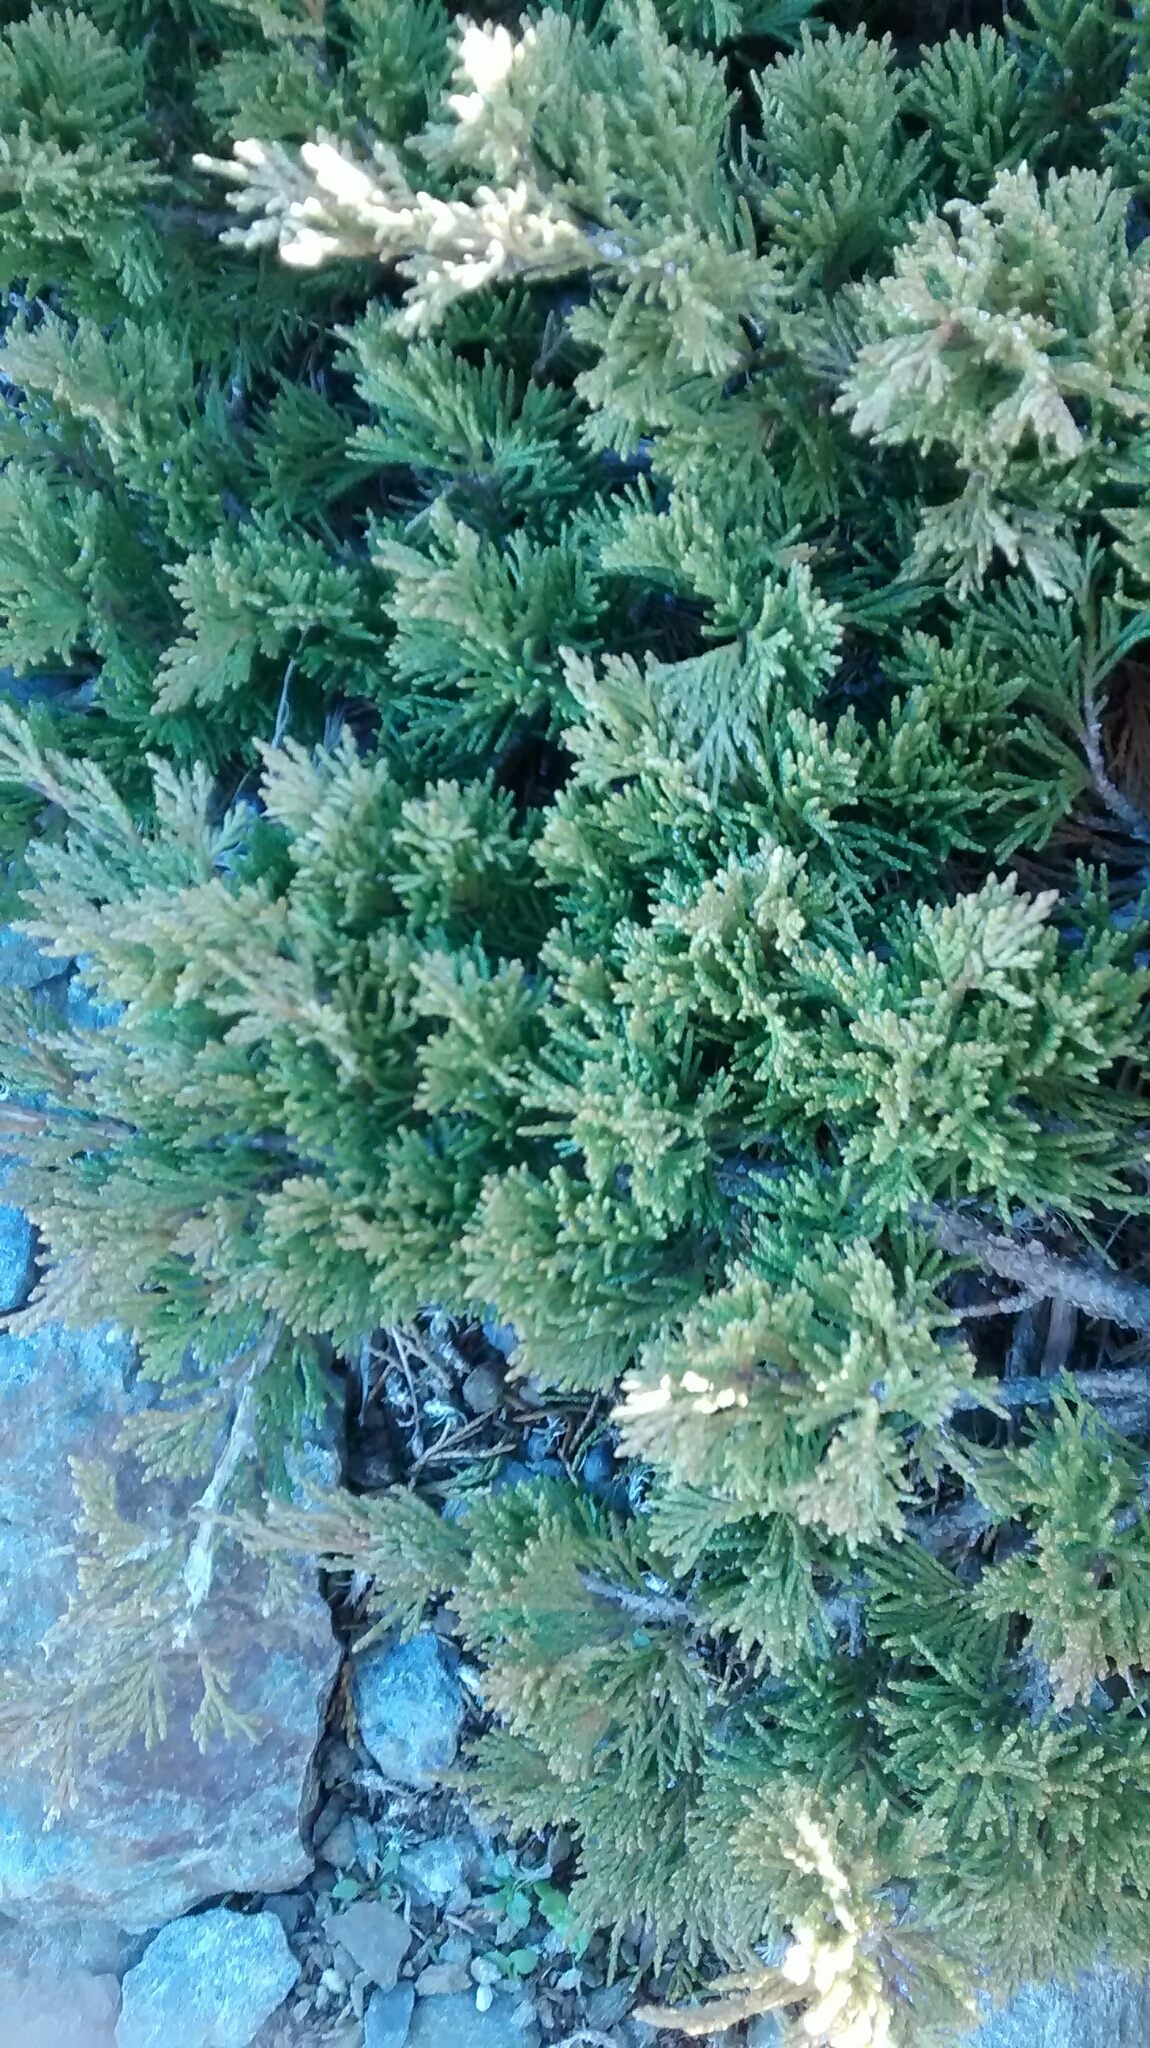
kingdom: Plantae
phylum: Tracheophyta
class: Pinopsida
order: Pinales
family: Cupressaceae
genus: Juniperus
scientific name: Juniperus sabina
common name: Savin
